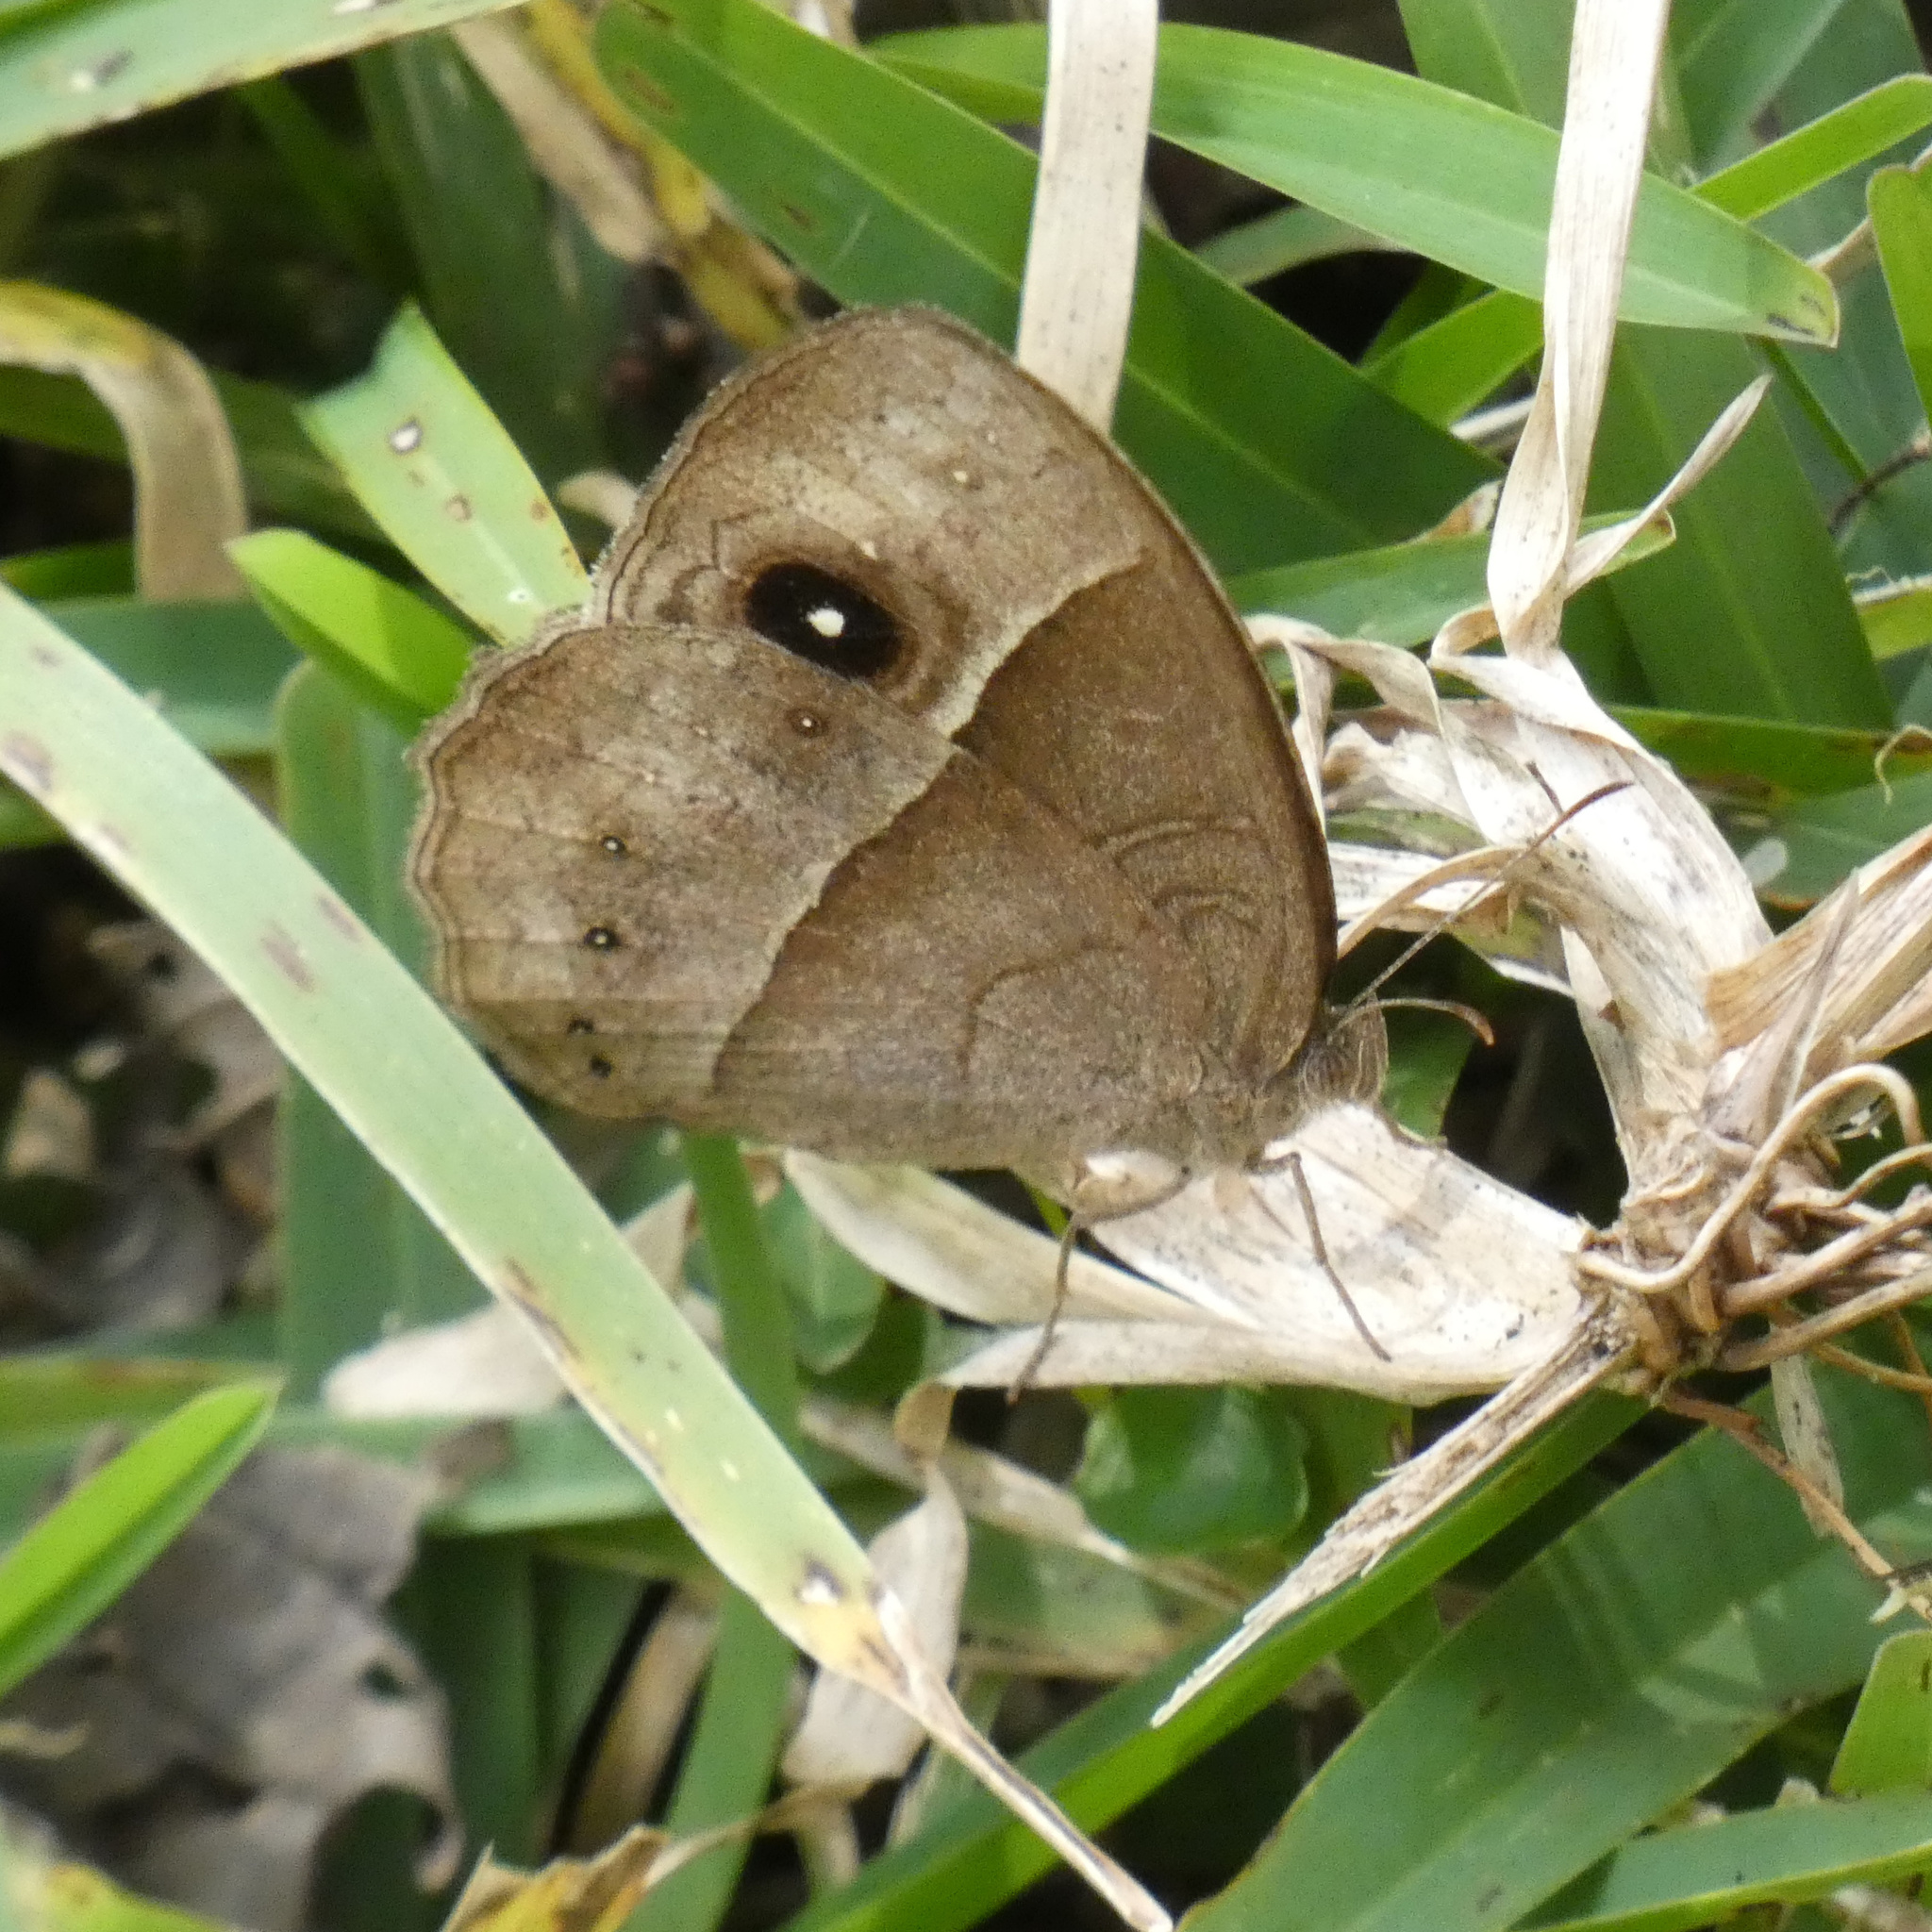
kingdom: Animalia
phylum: Arthropoda
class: Insecta
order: Lepidoptera
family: Nymphalidae
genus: Mycalesis
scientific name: Mycalesis rhacotis
